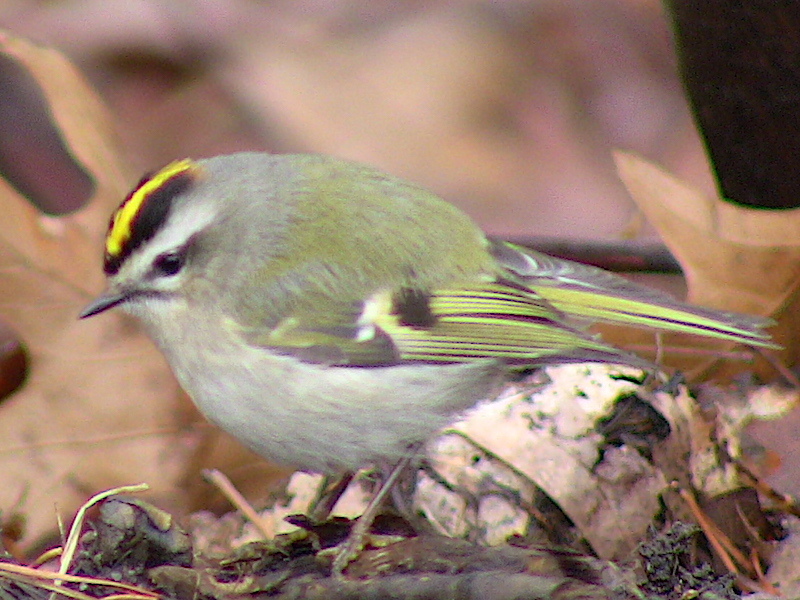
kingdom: Animalia
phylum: Chordata
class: Aves
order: Passeriformes
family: Regulidae
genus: Regulus
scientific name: Regulus satrapa
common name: Golden-crowned kinglet
